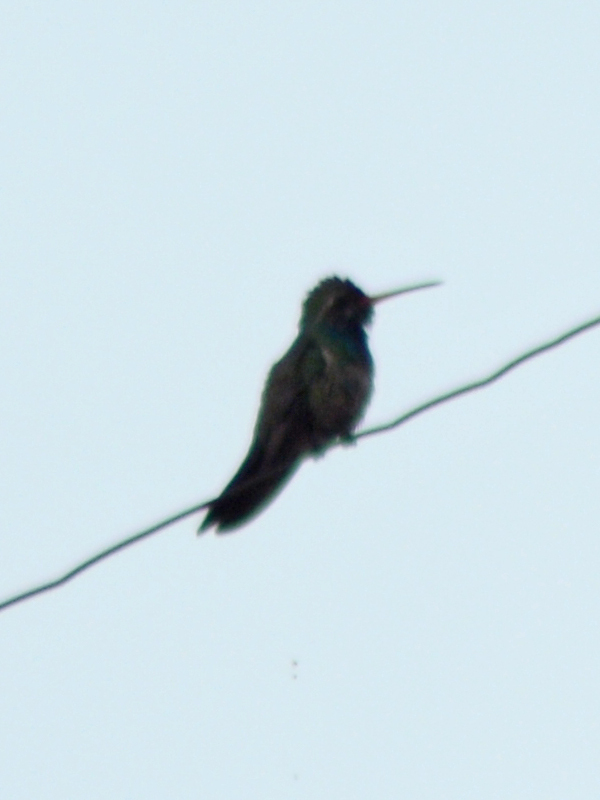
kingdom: Animalia
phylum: Chordata
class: Aves
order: Apodiformes
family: Trochilidae
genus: Cynanthus
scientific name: Cynanthus latirostris
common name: Broad-billed hummingbird
